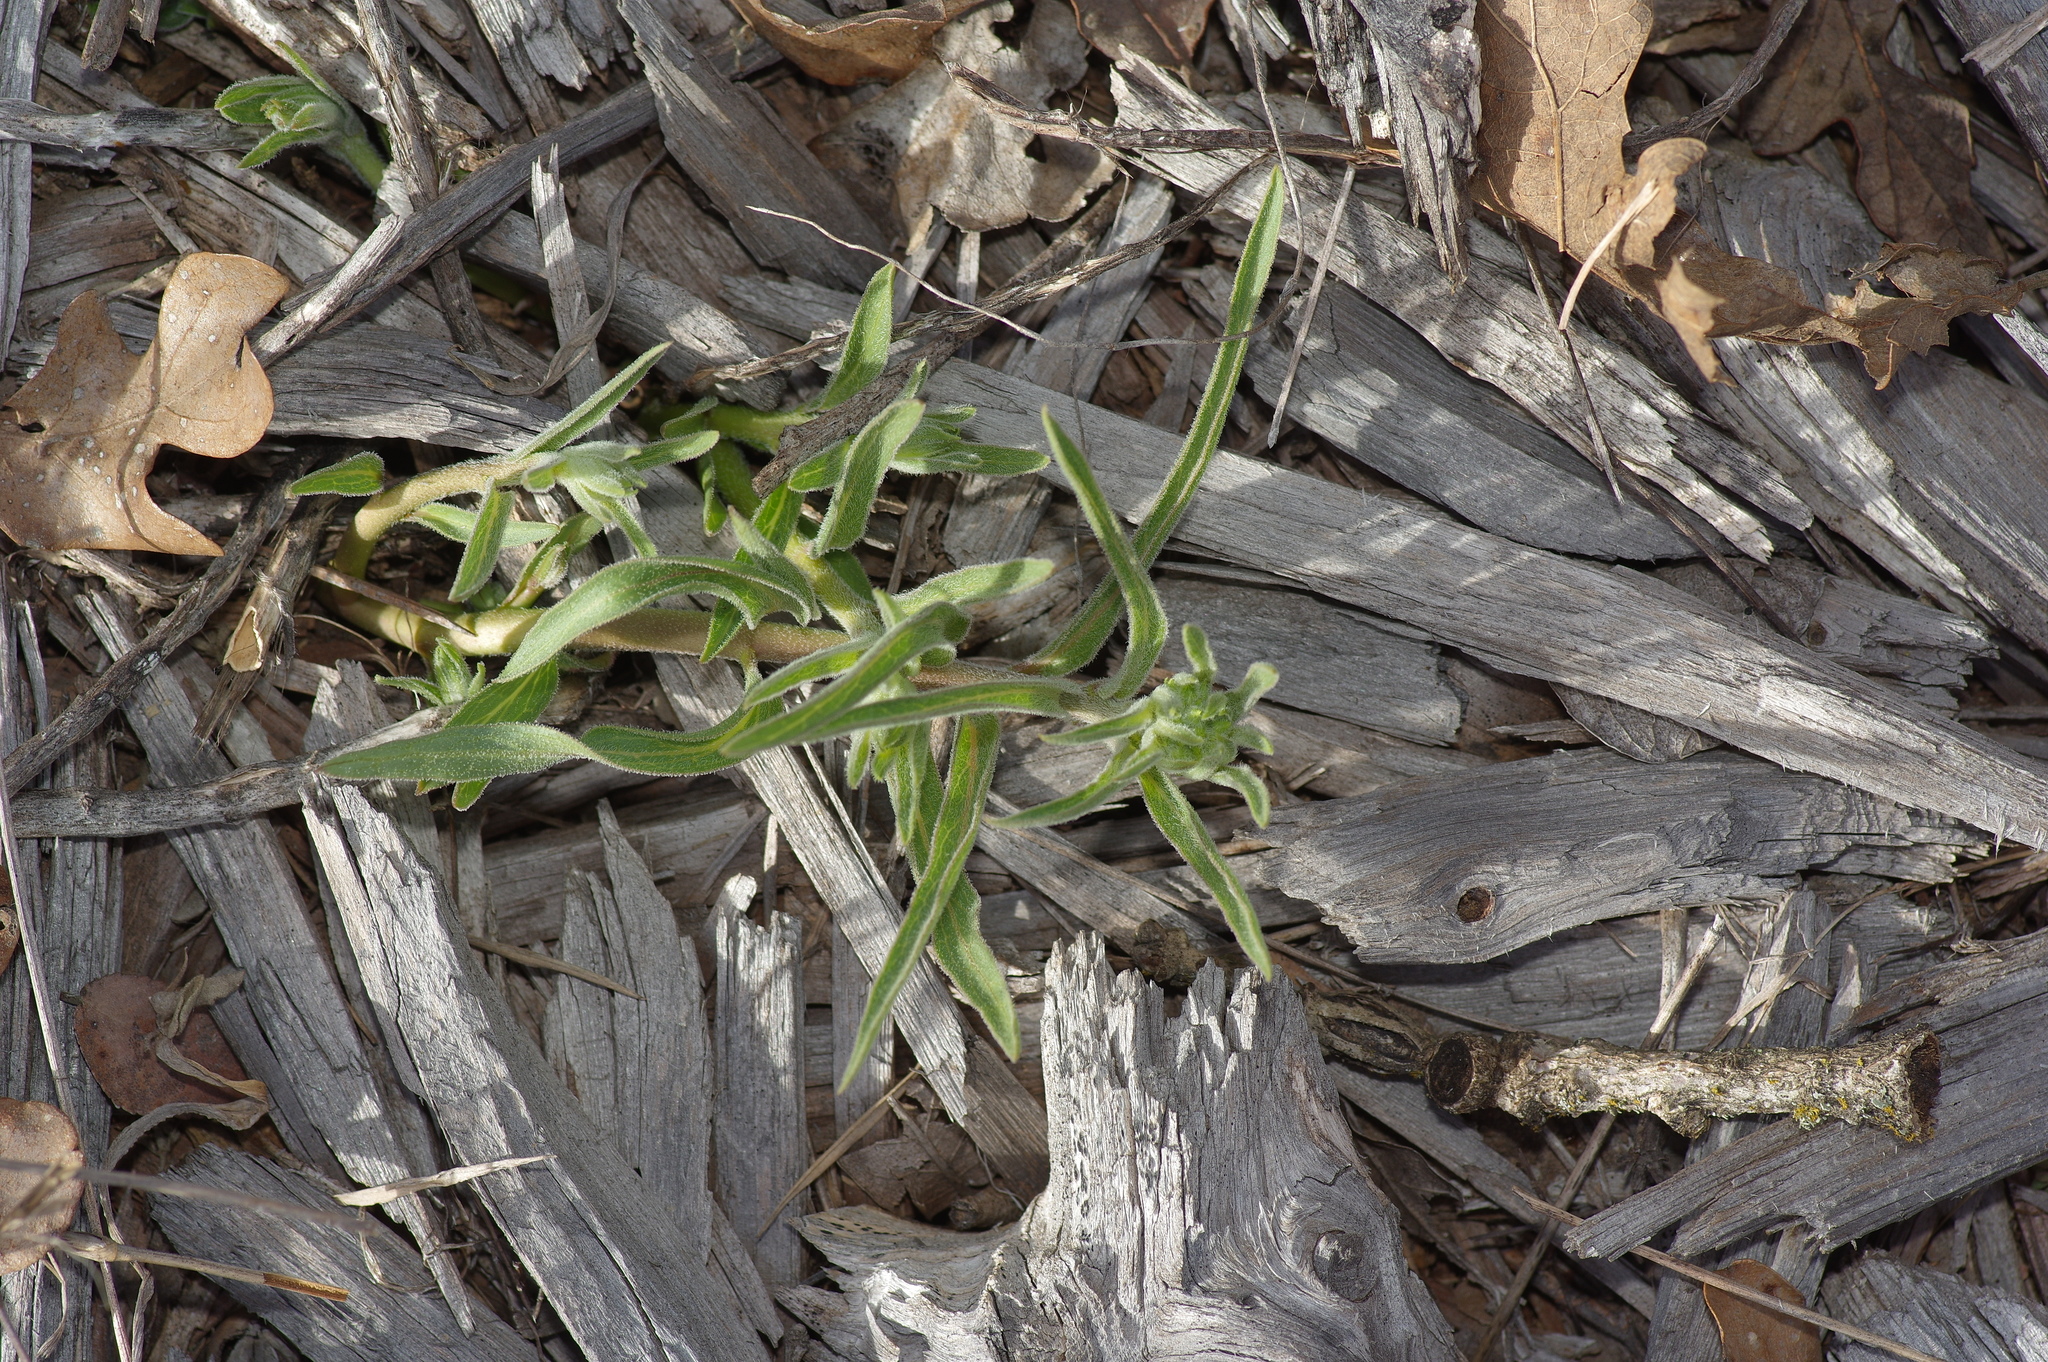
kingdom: Plantae
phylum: Tracheophyta
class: Magnoliopsida
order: Gentianales
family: Apocynaceae
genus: Asclepias
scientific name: Asclepias asperula
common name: Antelope horns
